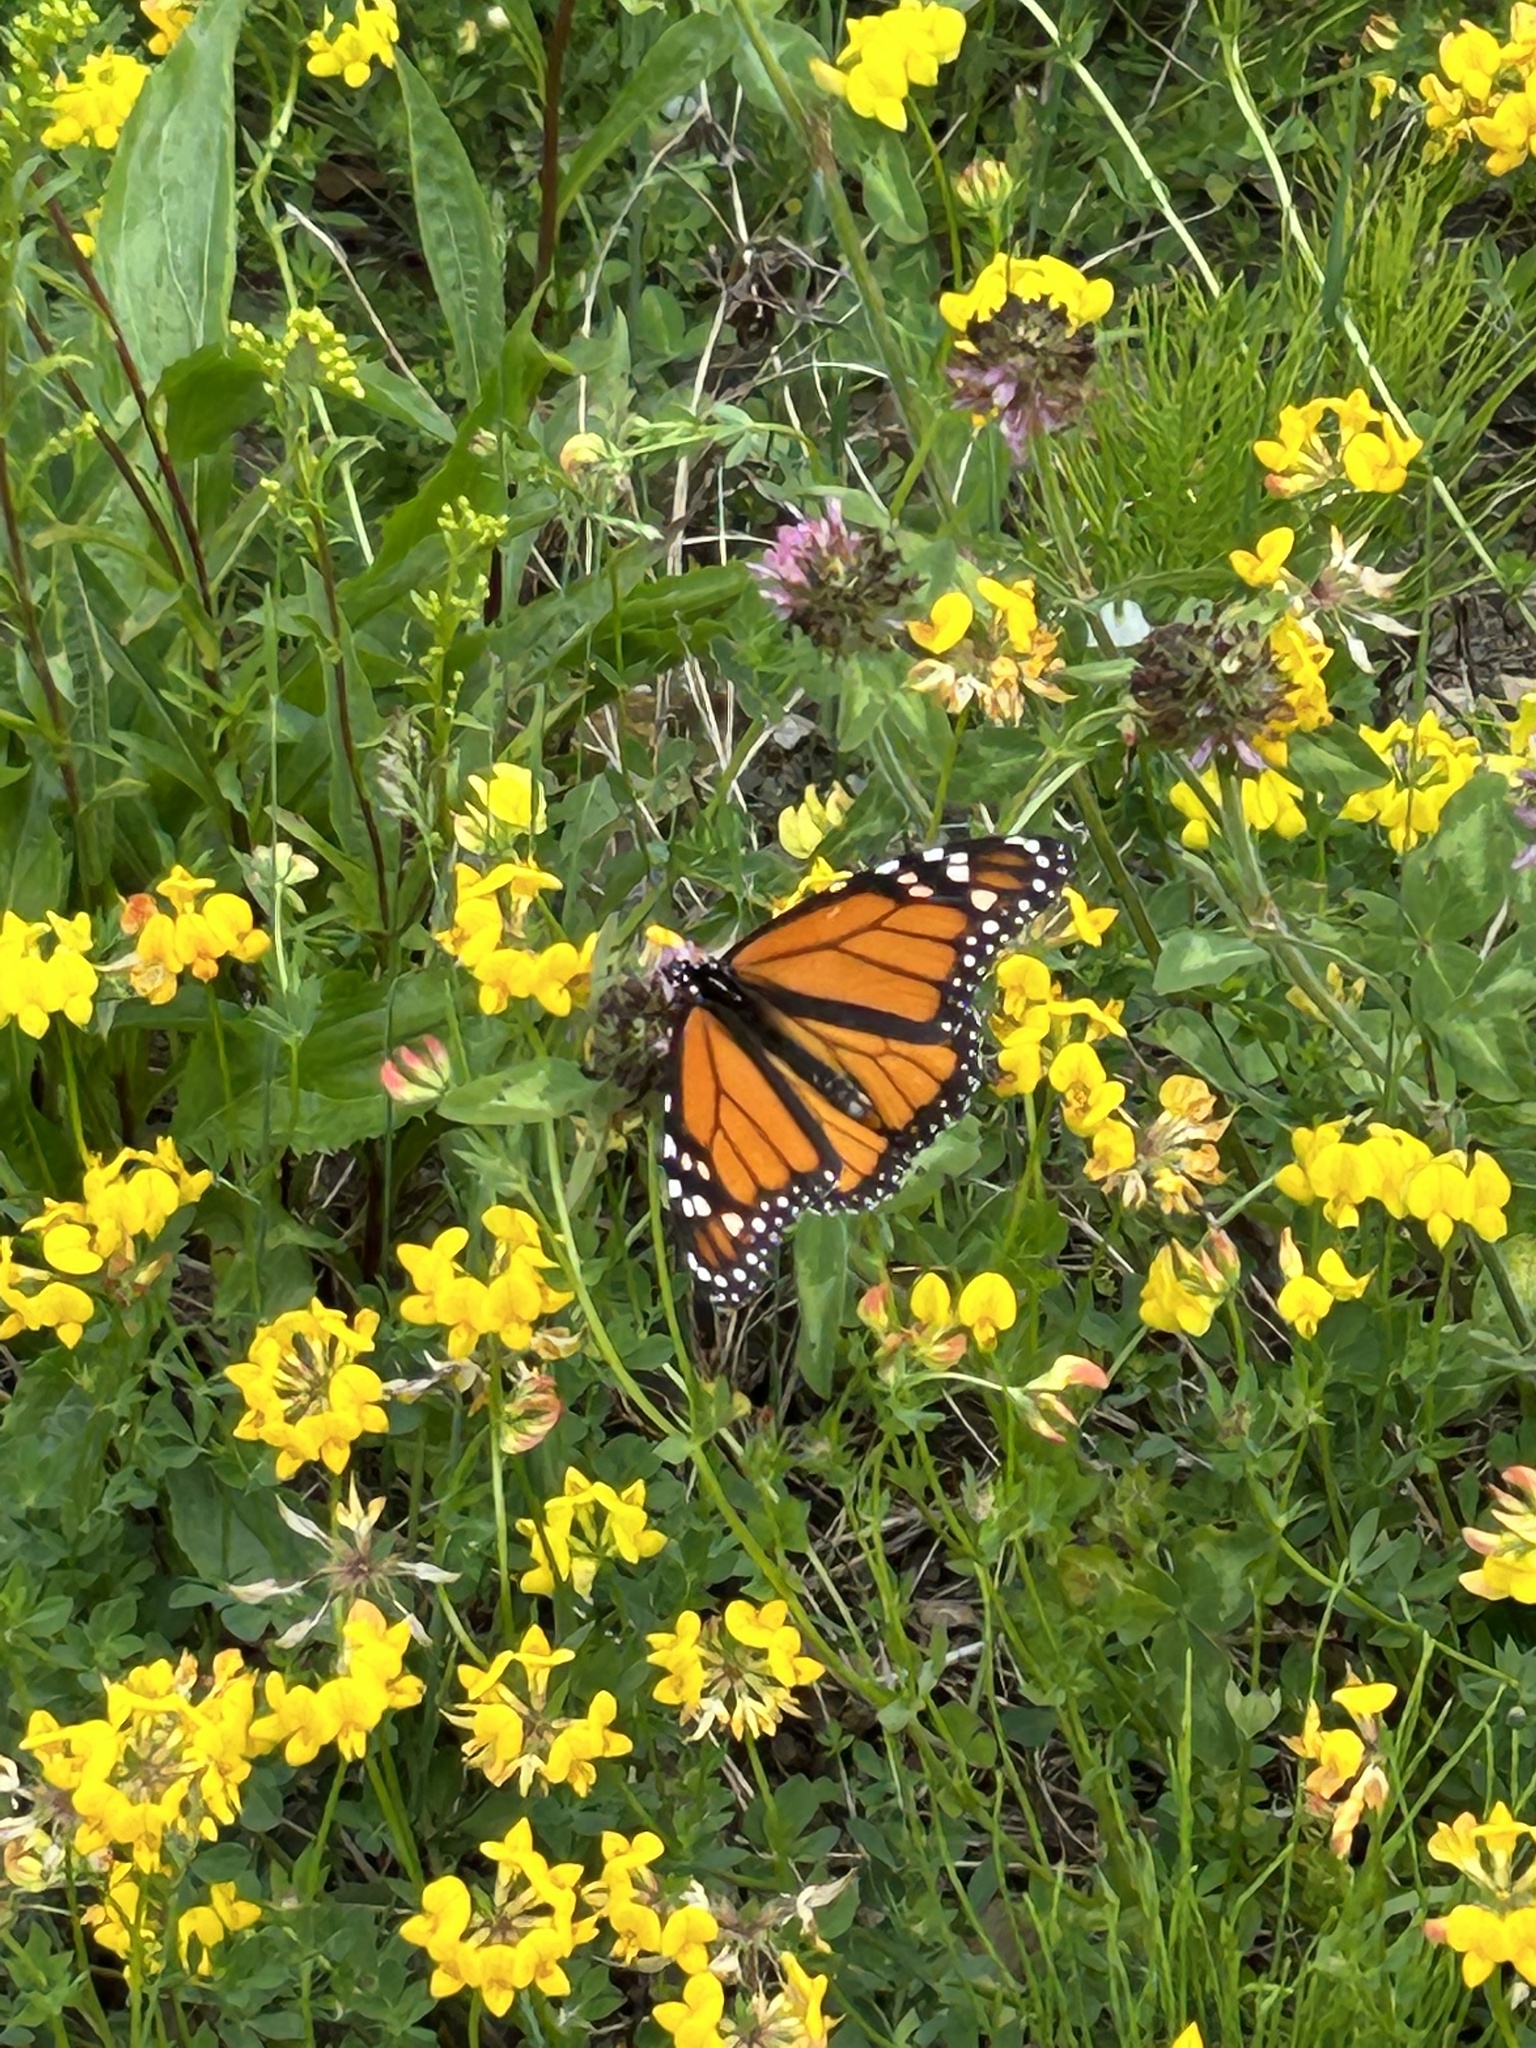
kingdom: Animalia
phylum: Arthropoda
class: Insecta
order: Lepidoptera
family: Nymphalidae
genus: Danaus
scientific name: Danaus plexippus
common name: Monarch
